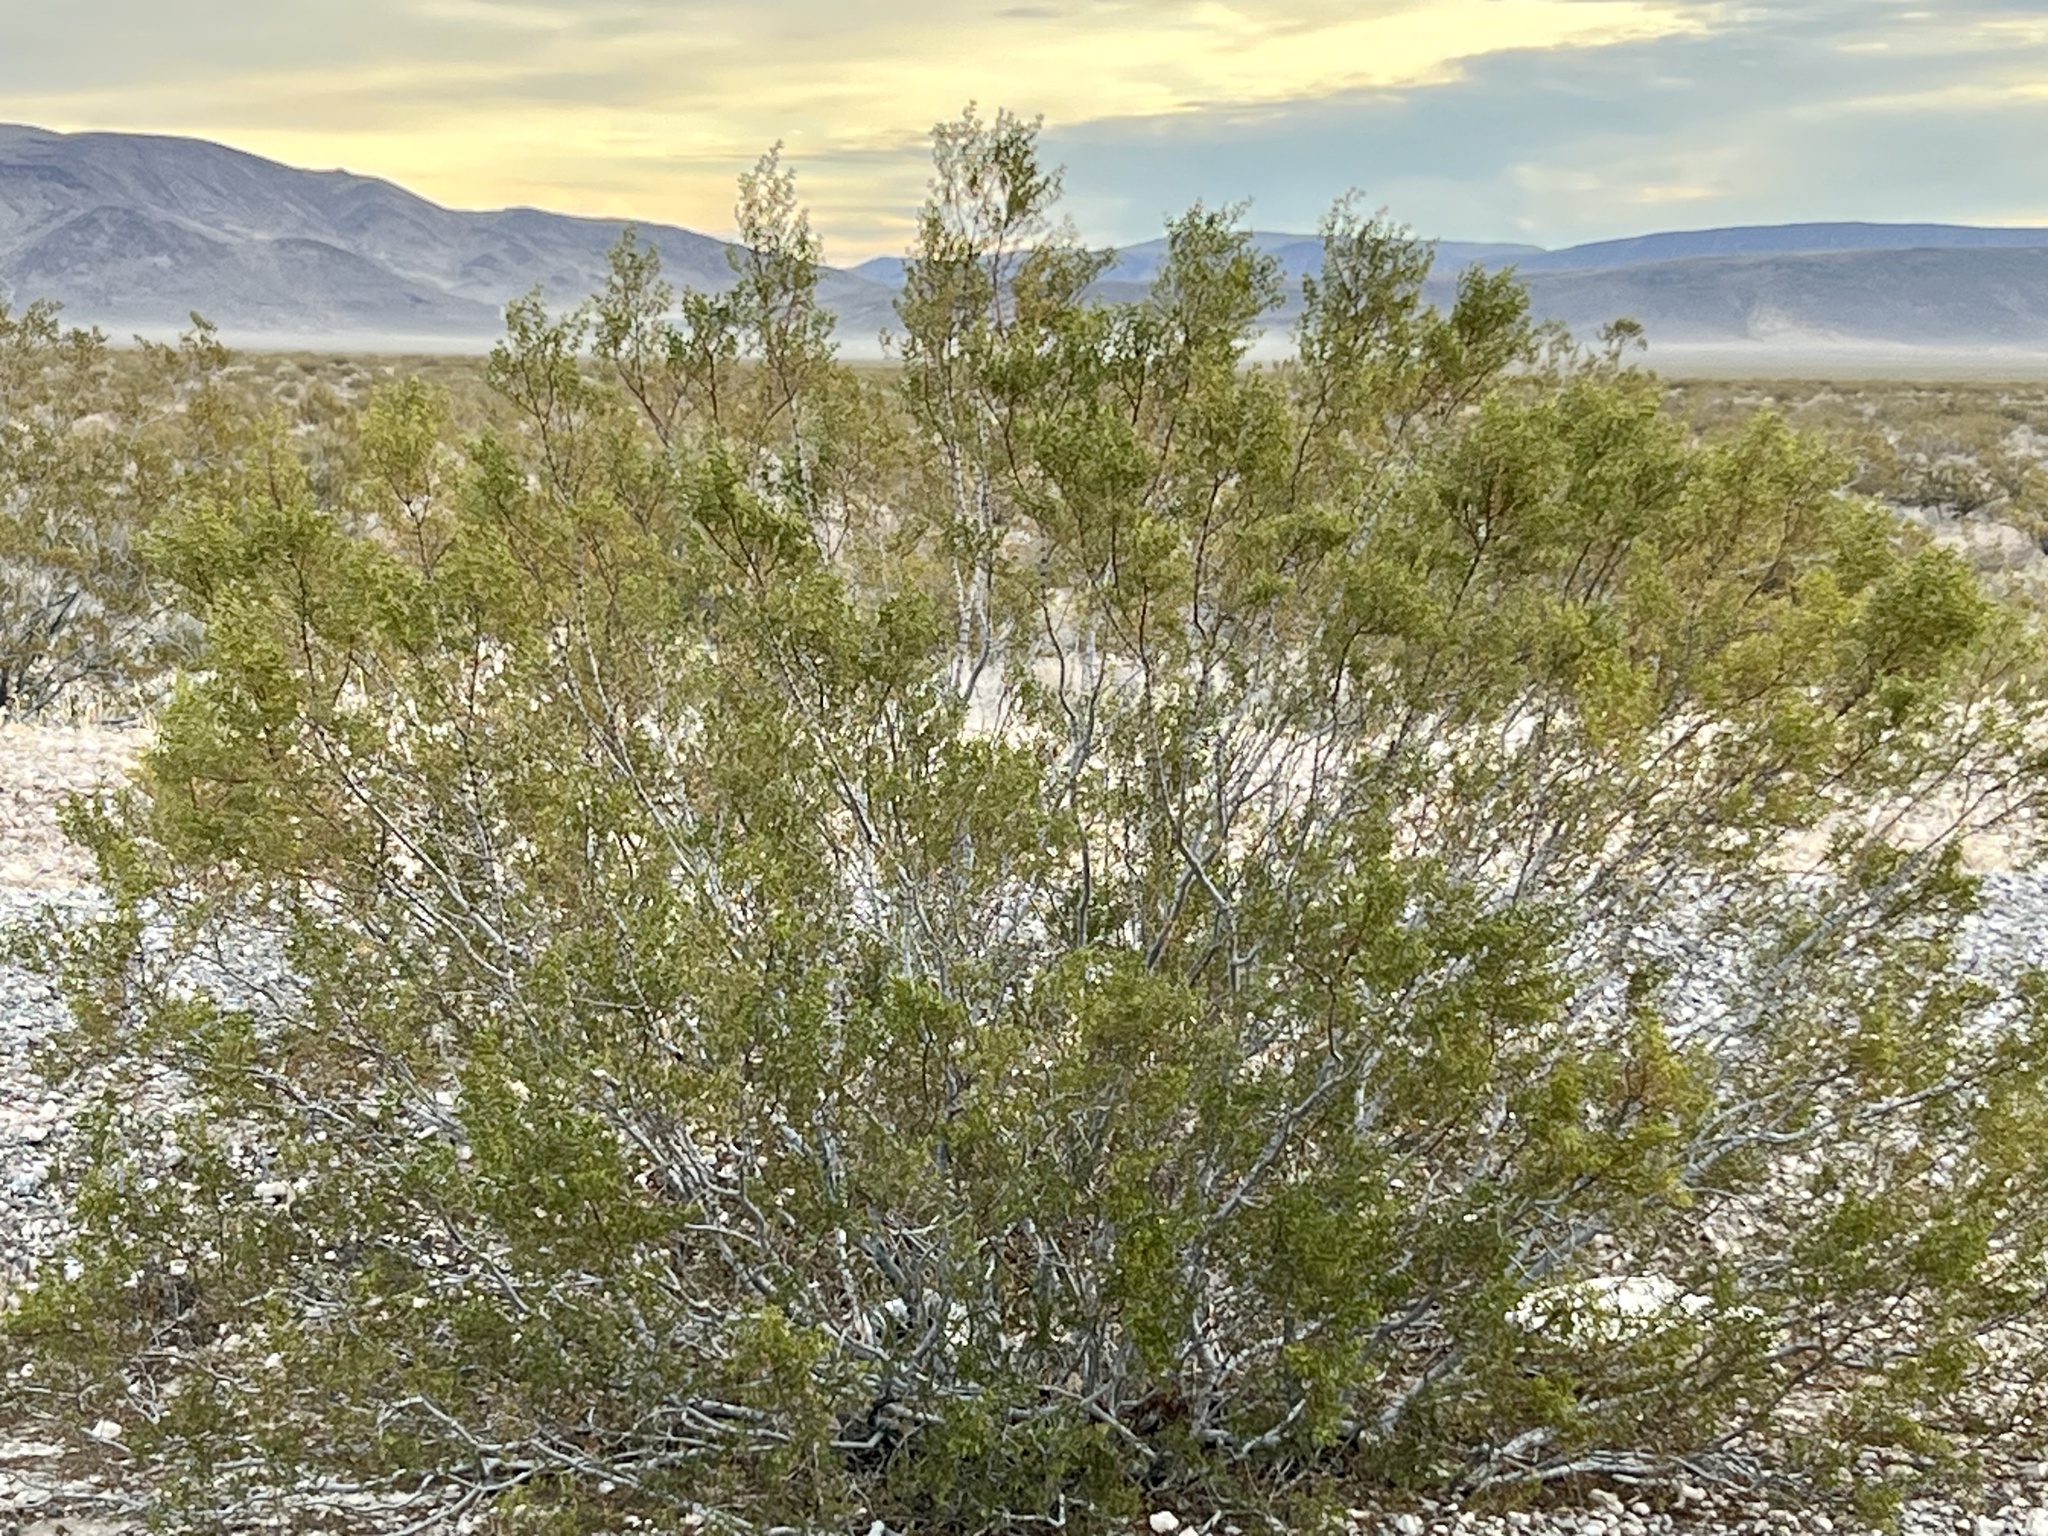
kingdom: Plantae
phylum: Tracheophyta
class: Magnoliopsida
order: Zygophyllales
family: Zygophyllaceae
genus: Larrea
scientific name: Larrea tridentata
